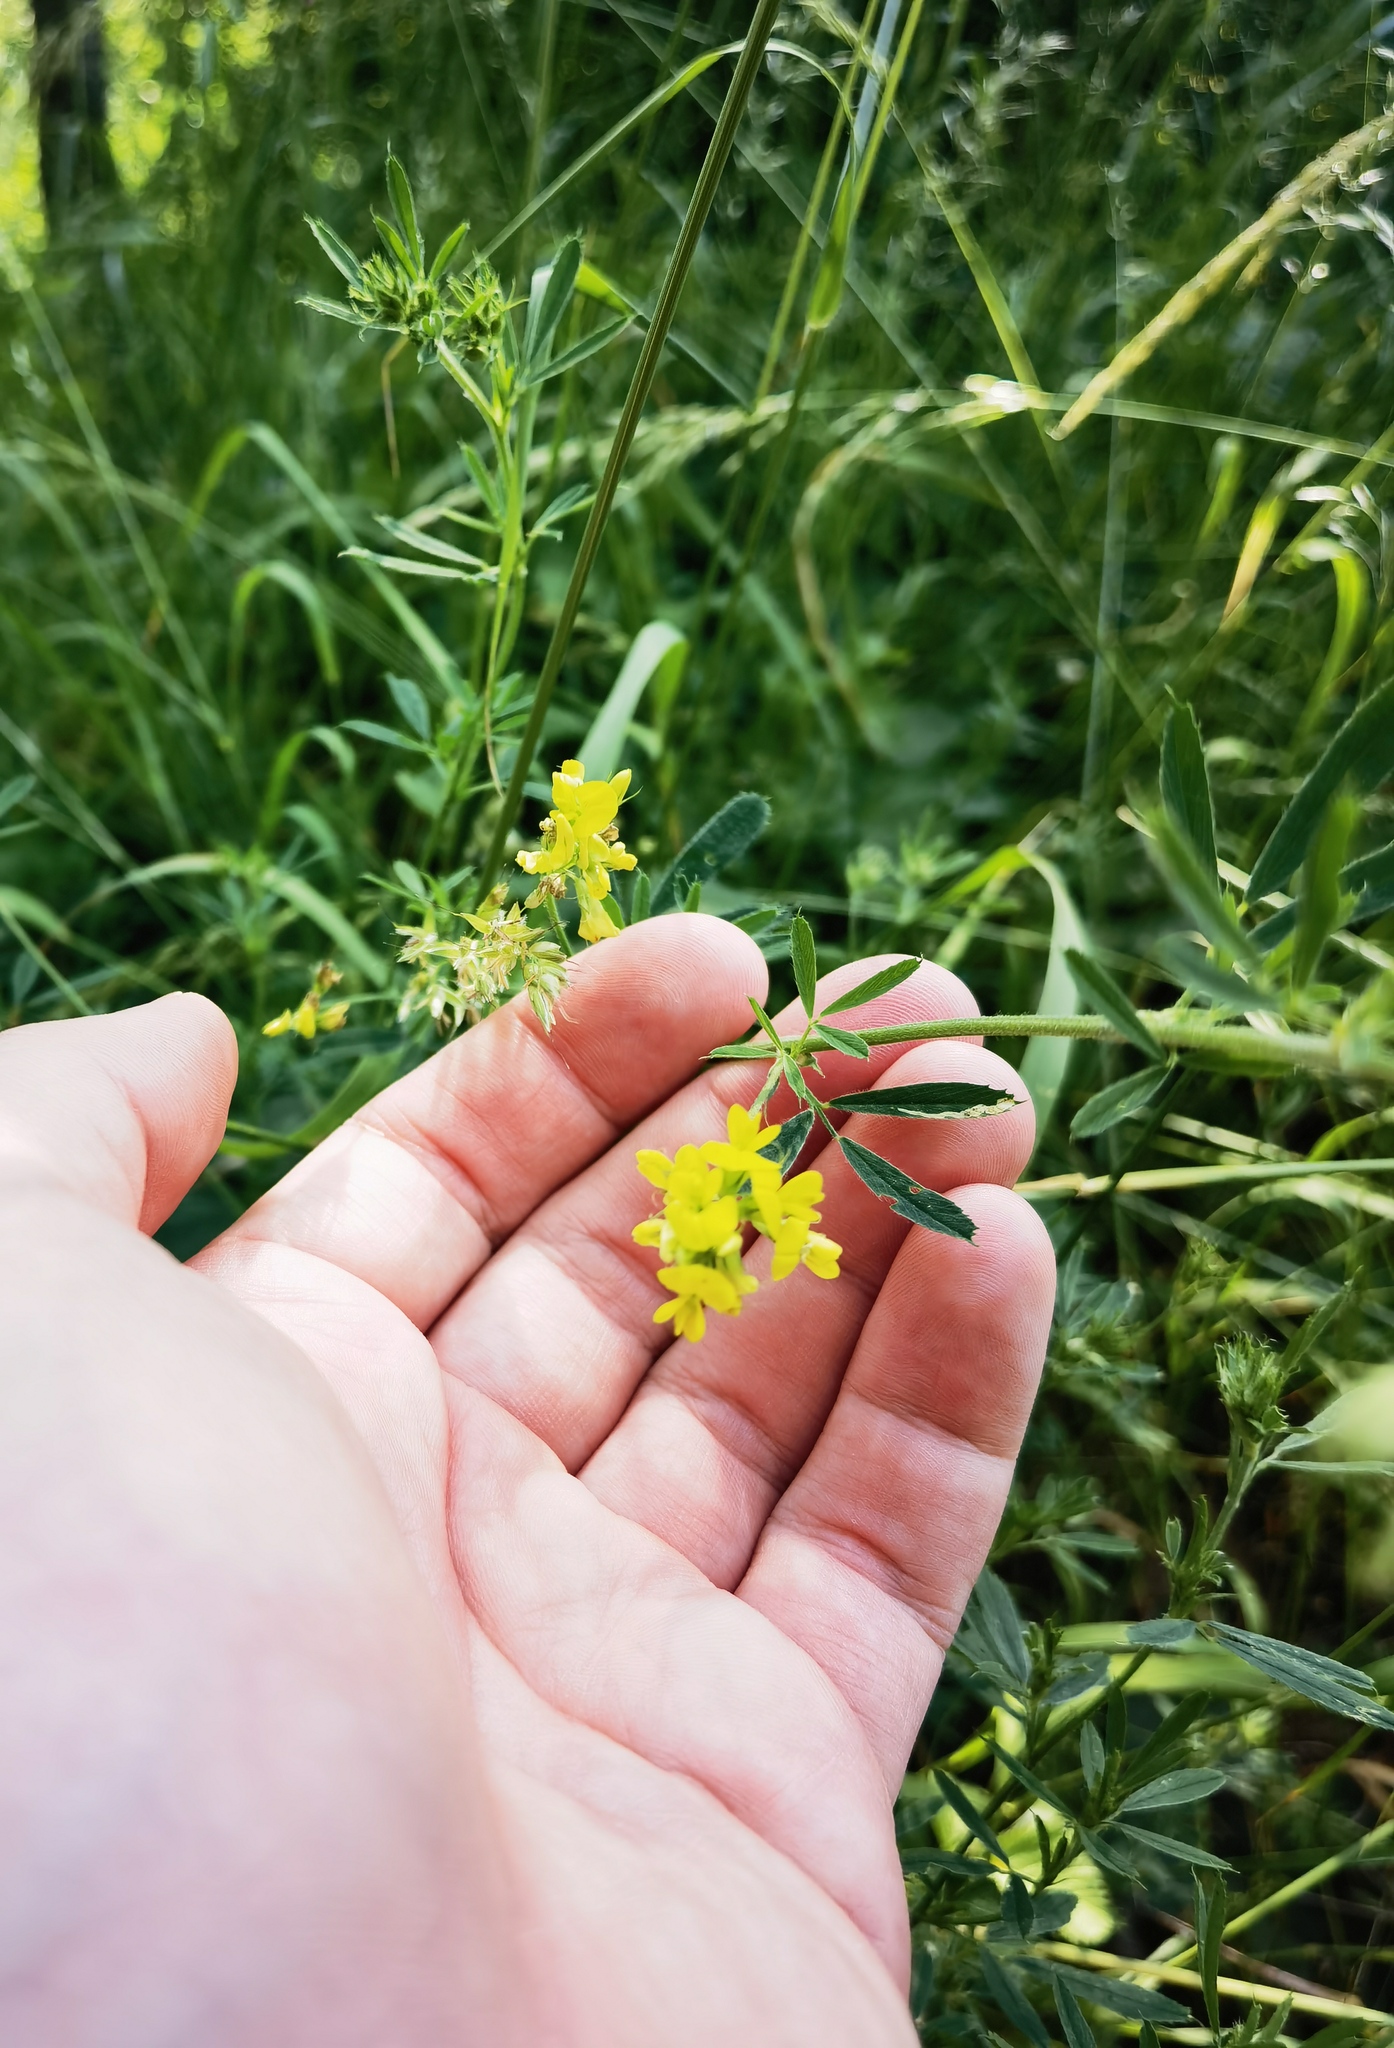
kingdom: Plantae
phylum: Tracheophyta
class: Magnoliopsida
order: Fabales
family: Fabaceae
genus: Medicago
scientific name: Medicago falcata
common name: Sickle medick
